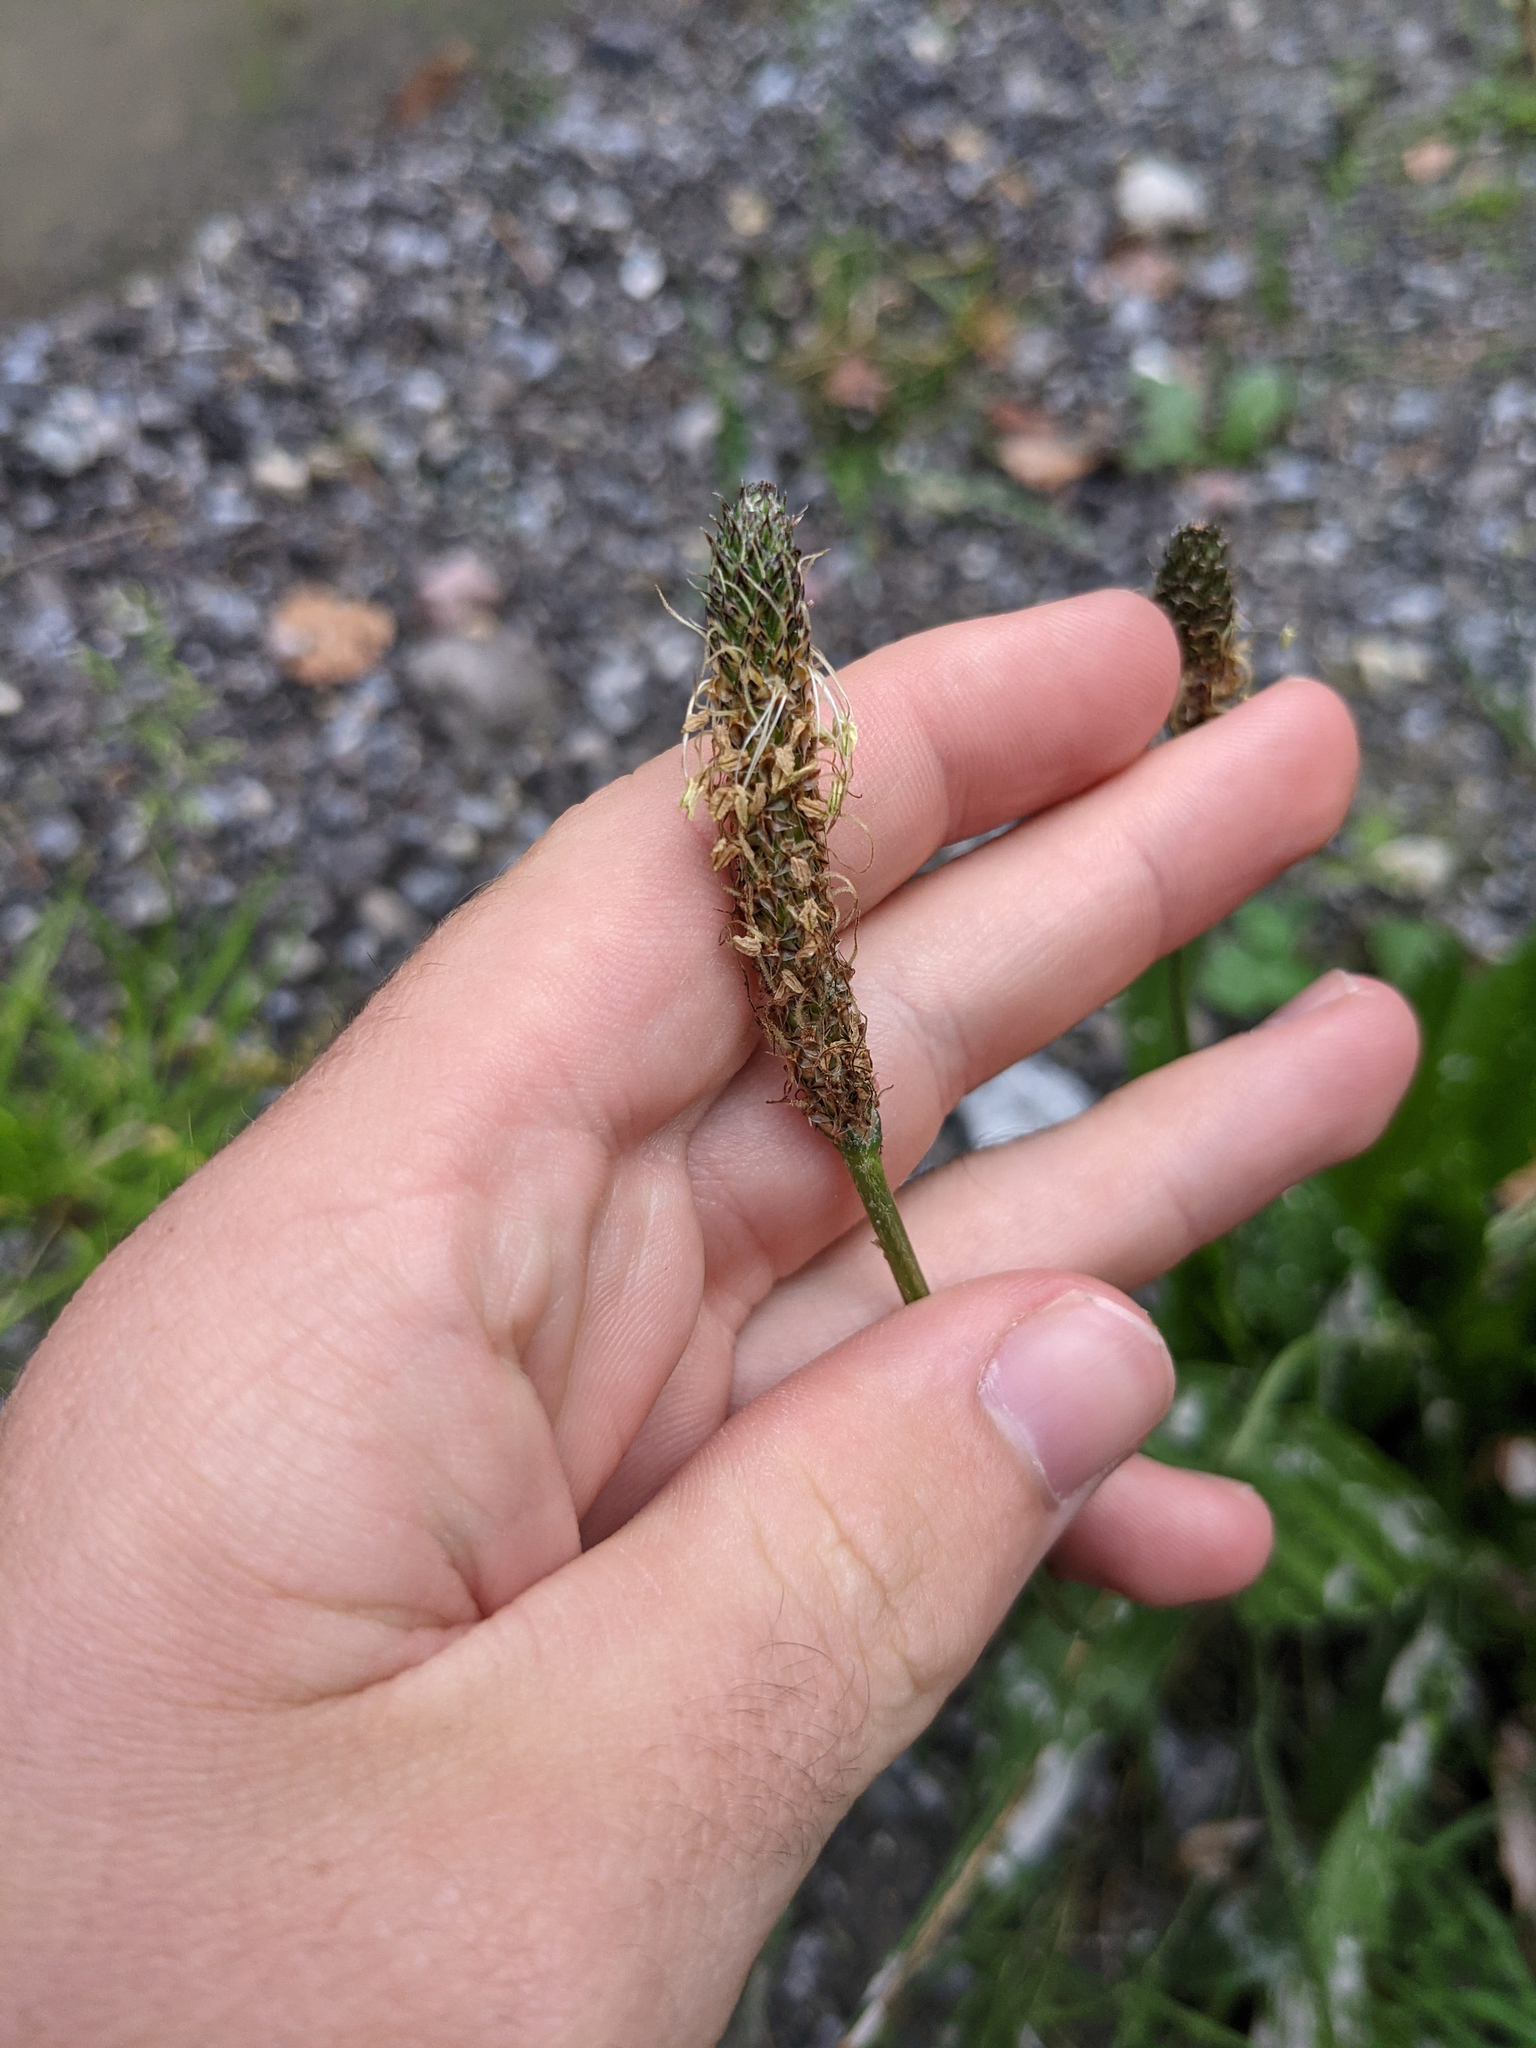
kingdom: Plantae
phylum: Tracheophyta
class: Magnoliopsida
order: Lamiales
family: Plantaginaceae
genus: Plantago
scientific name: Plantago lanceolata
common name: Ribwort plantain
